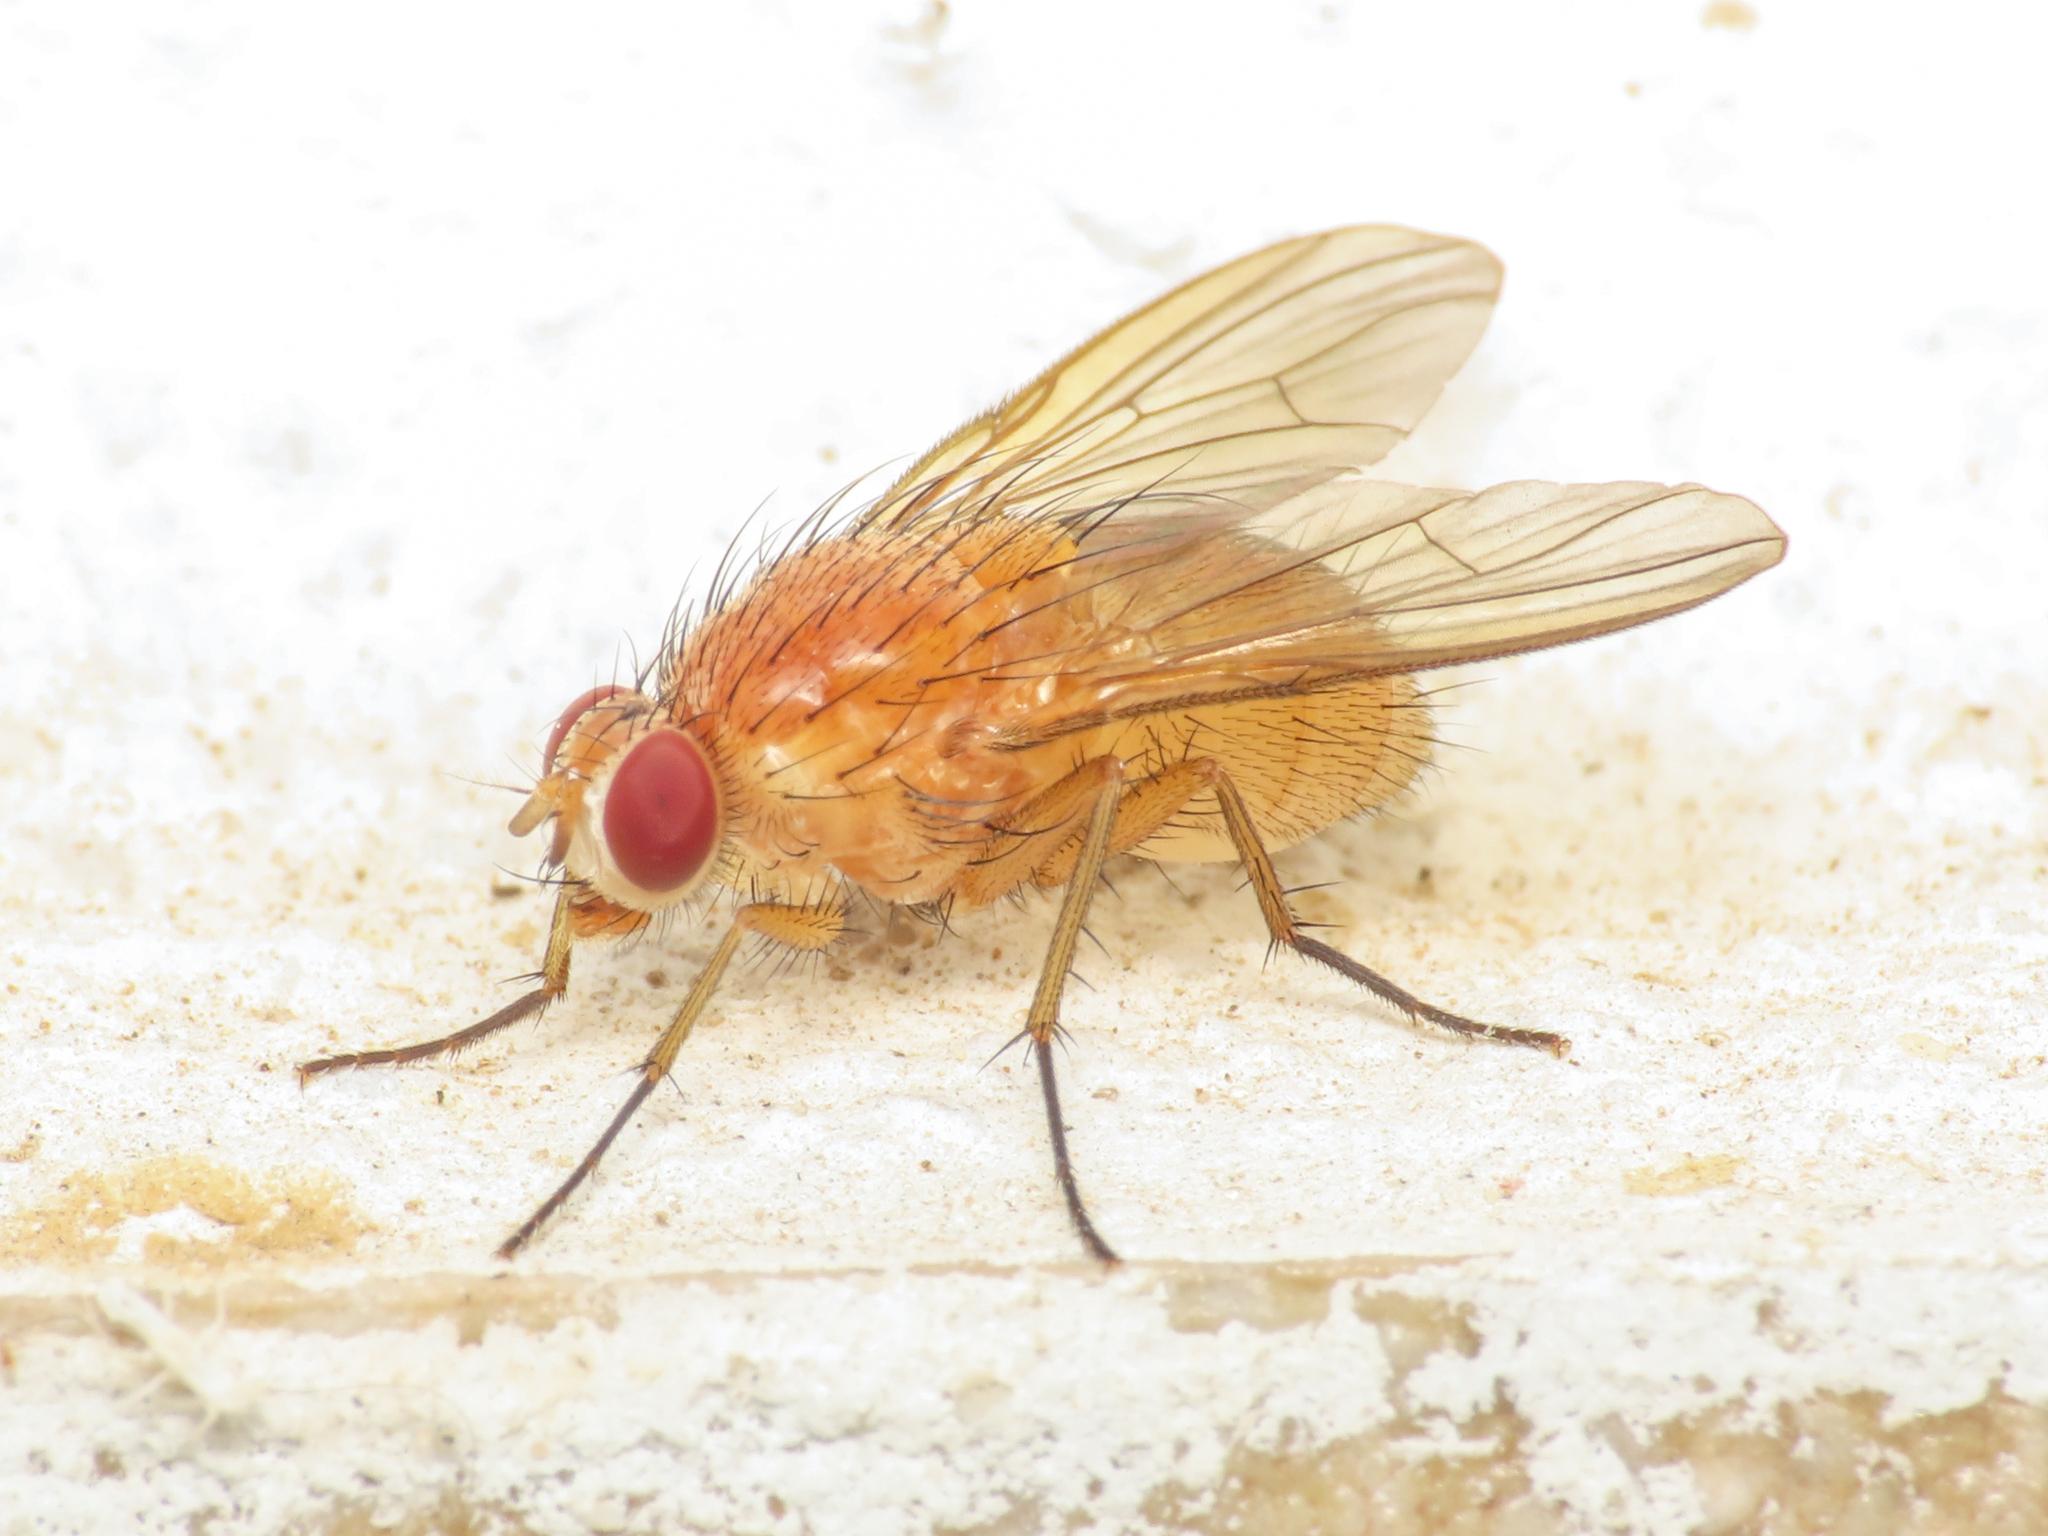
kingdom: Animalia
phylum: Arthropoda
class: Insecta
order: Diptera
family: Muscidae
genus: Phaonia
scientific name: Phaonia pallida
